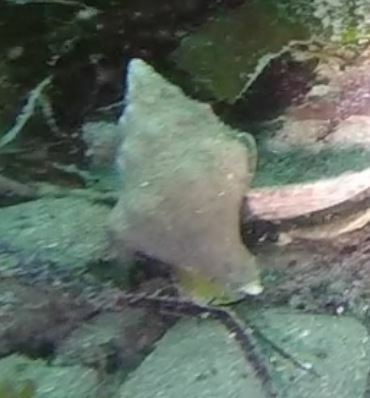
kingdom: Animalia
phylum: Mollusca
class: Gastropoda
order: Neogastropoda
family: Austrosiphonidae
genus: Kelletia
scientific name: Kelletia kelletii
